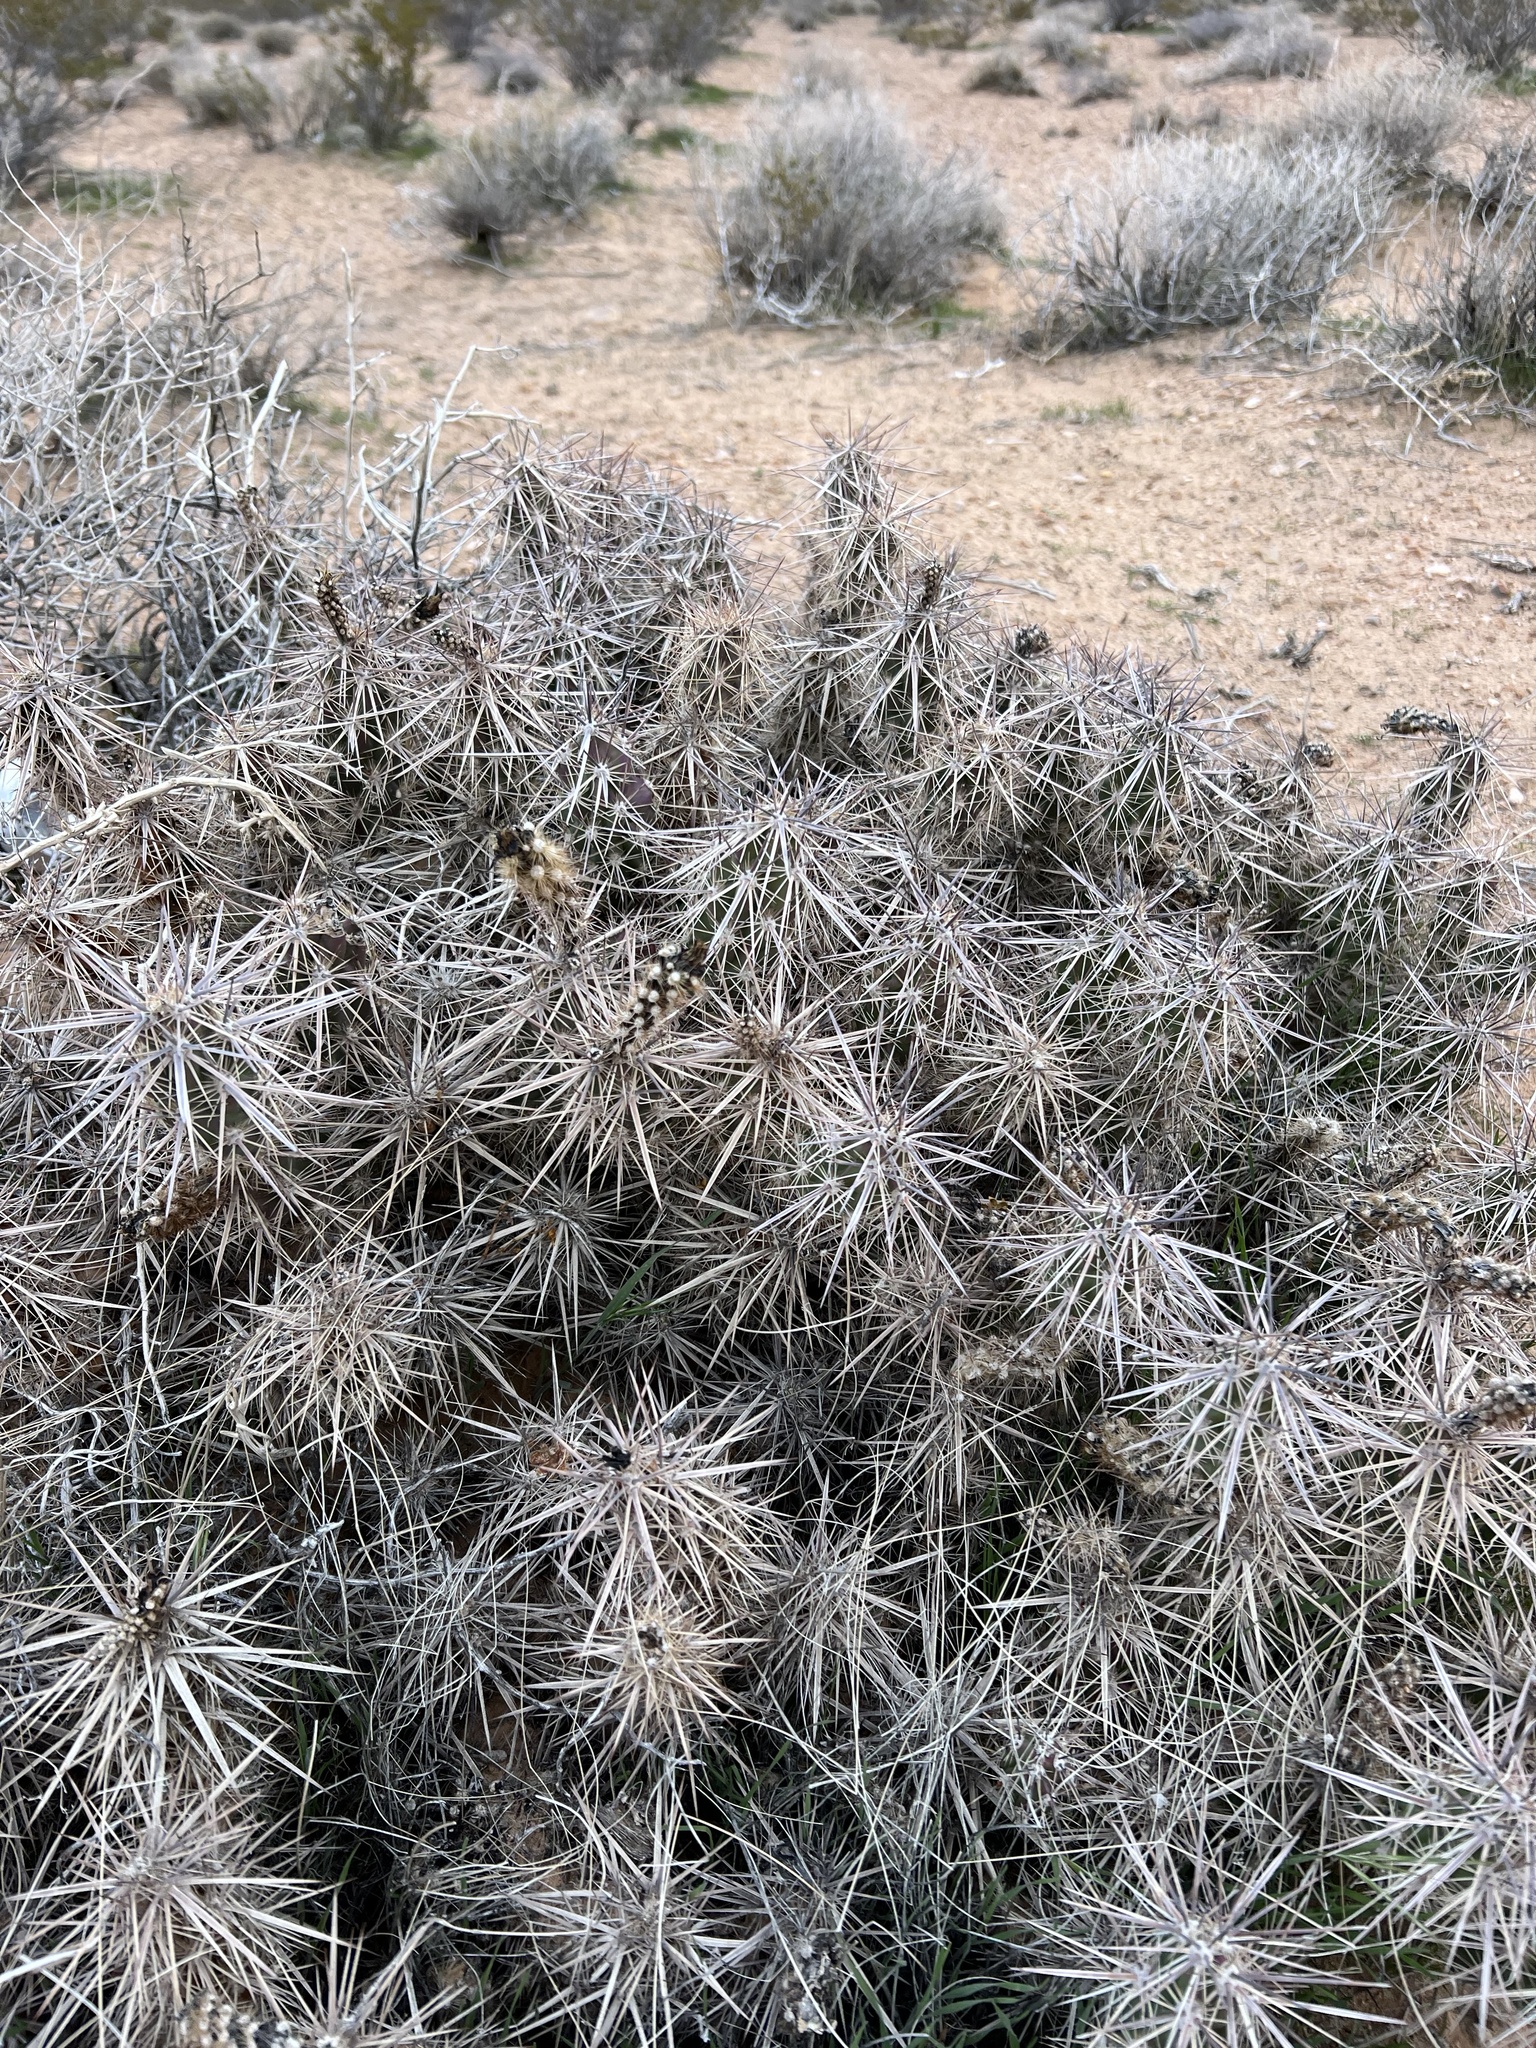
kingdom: Plantae
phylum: Tracheophyta
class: Magnoliopsida
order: Caryophyllales
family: Cactaceae
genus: Grusonia
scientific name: Grusonia parishiorum
